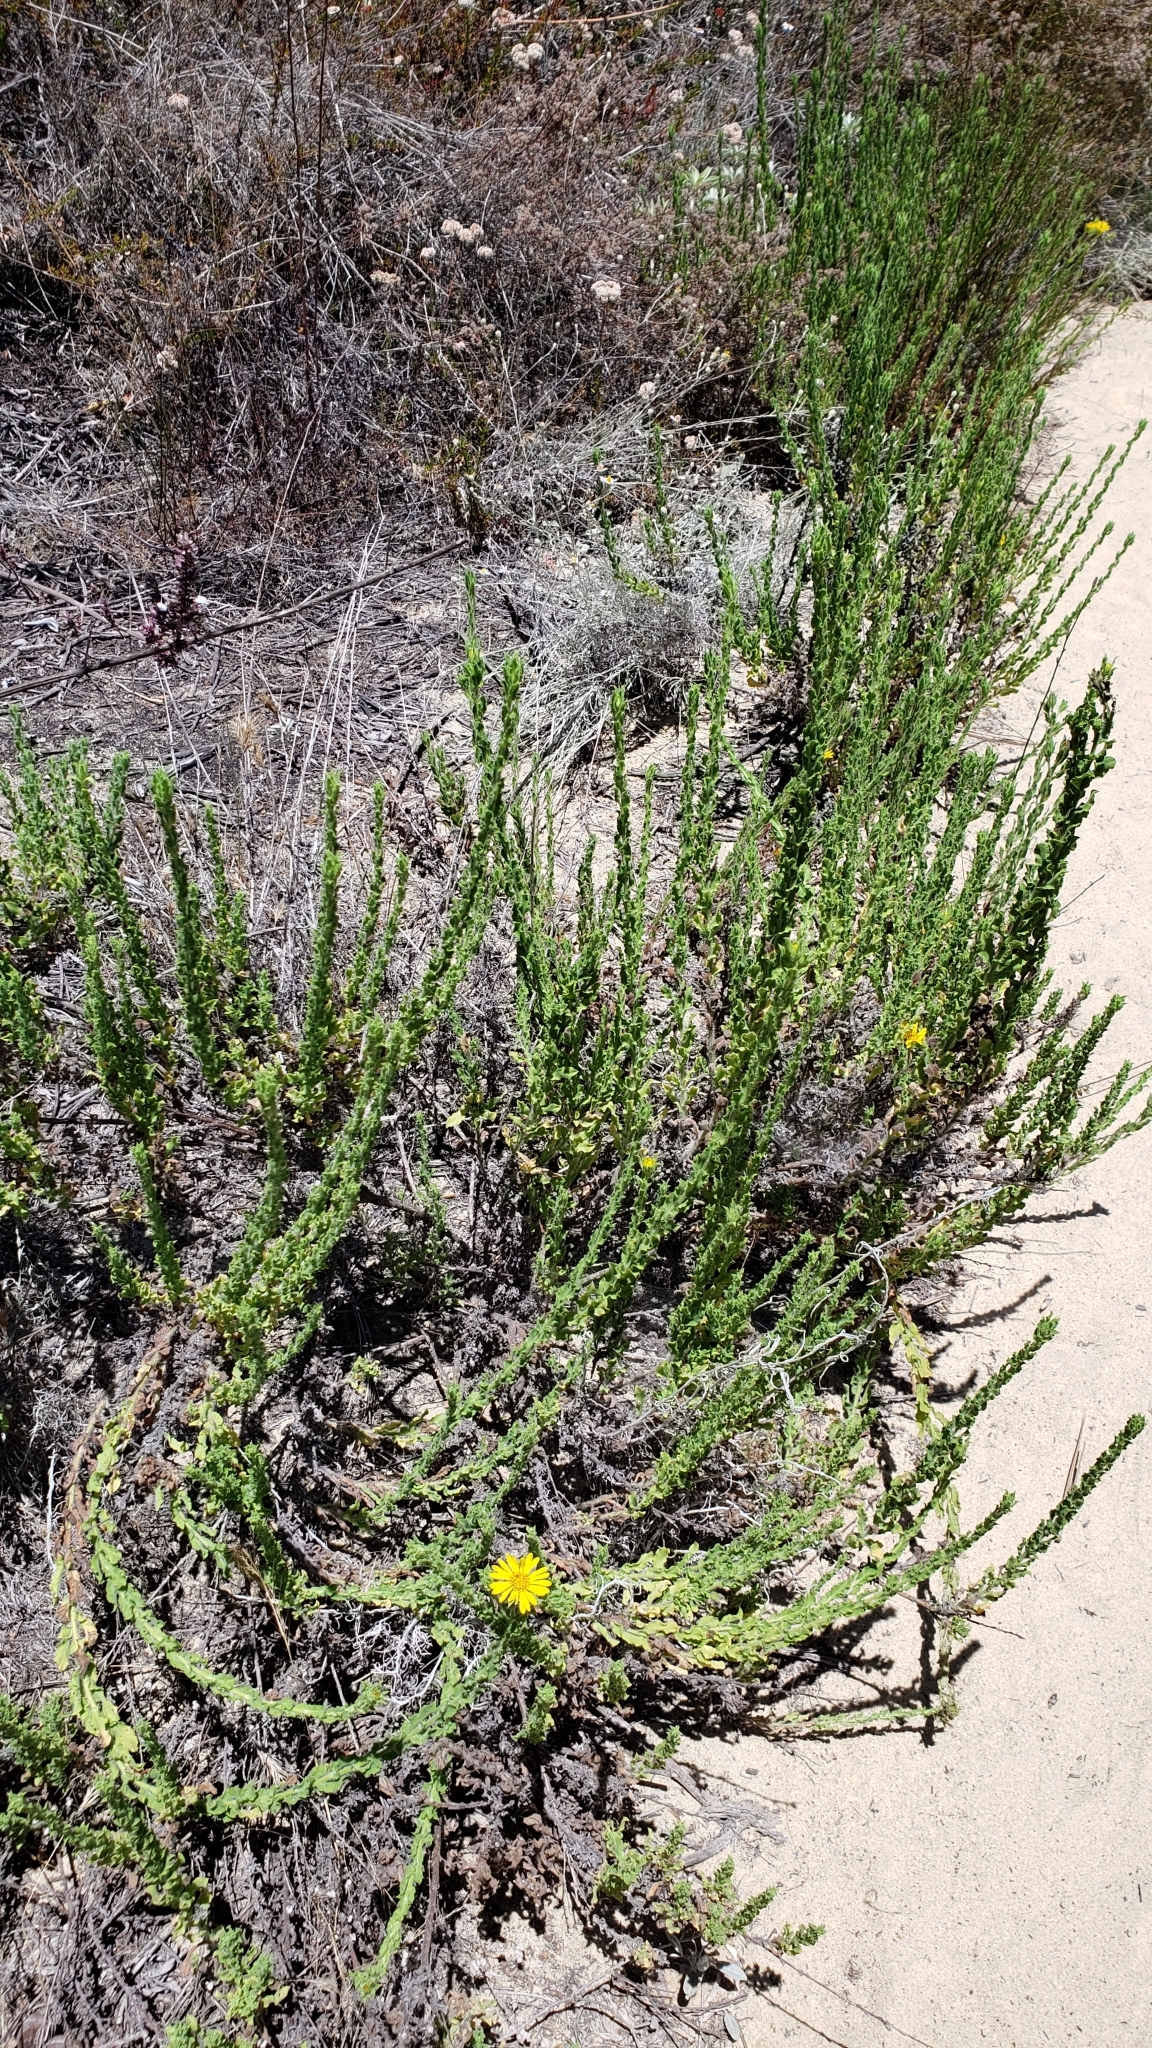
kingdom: Plantae
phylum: Tracheophyta
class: Magnoliopsida
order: Asterales
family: Asteraceae
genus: Heterotheca
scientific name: Heterotheca sessiliflora
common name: Sessile-flower golden-aster
